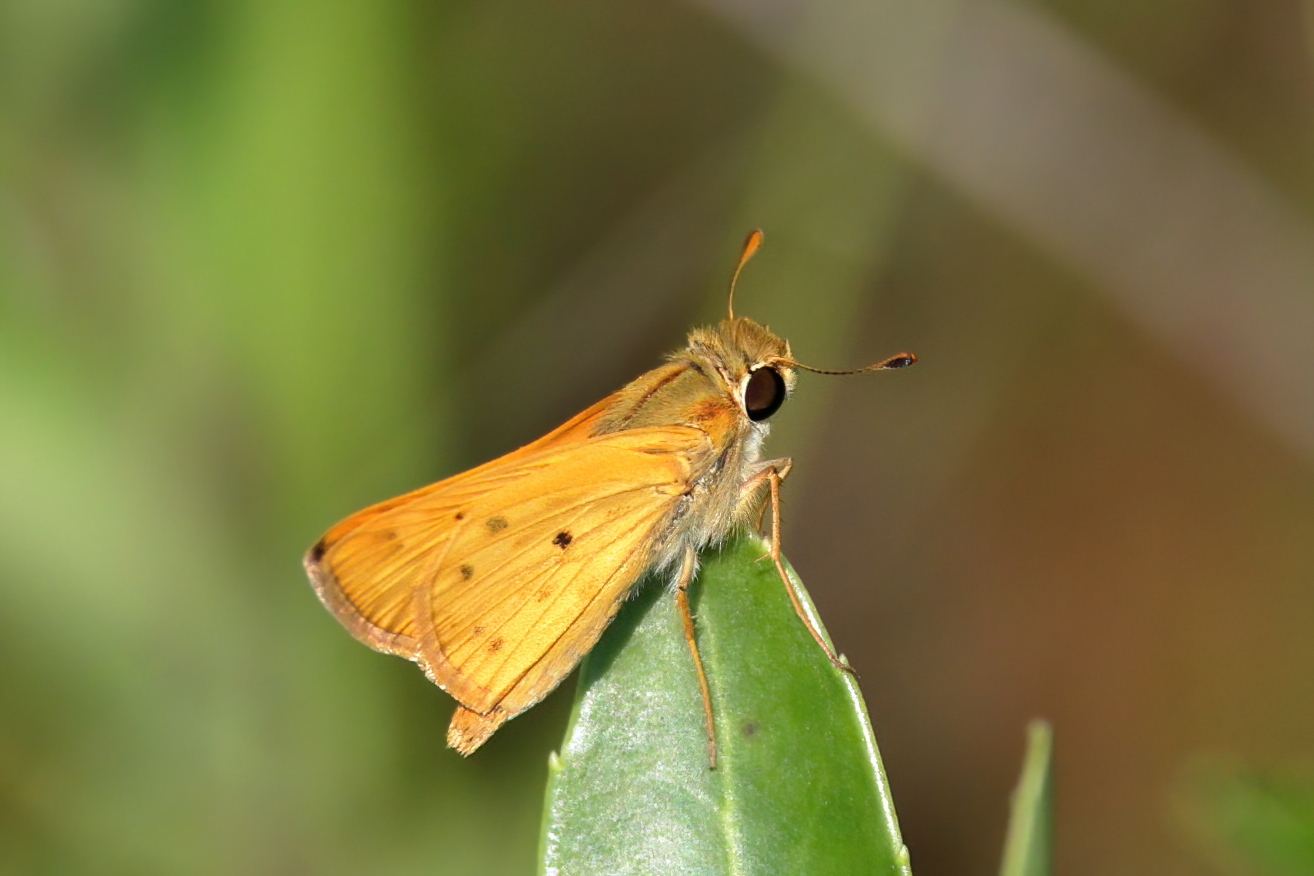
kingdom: Animalia
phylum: Arthropoda
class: Insecta
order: Lepidoptera
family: Hesperiidae
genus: Hylephila
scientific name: Hylephila phyleus
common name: Fiery skipper
